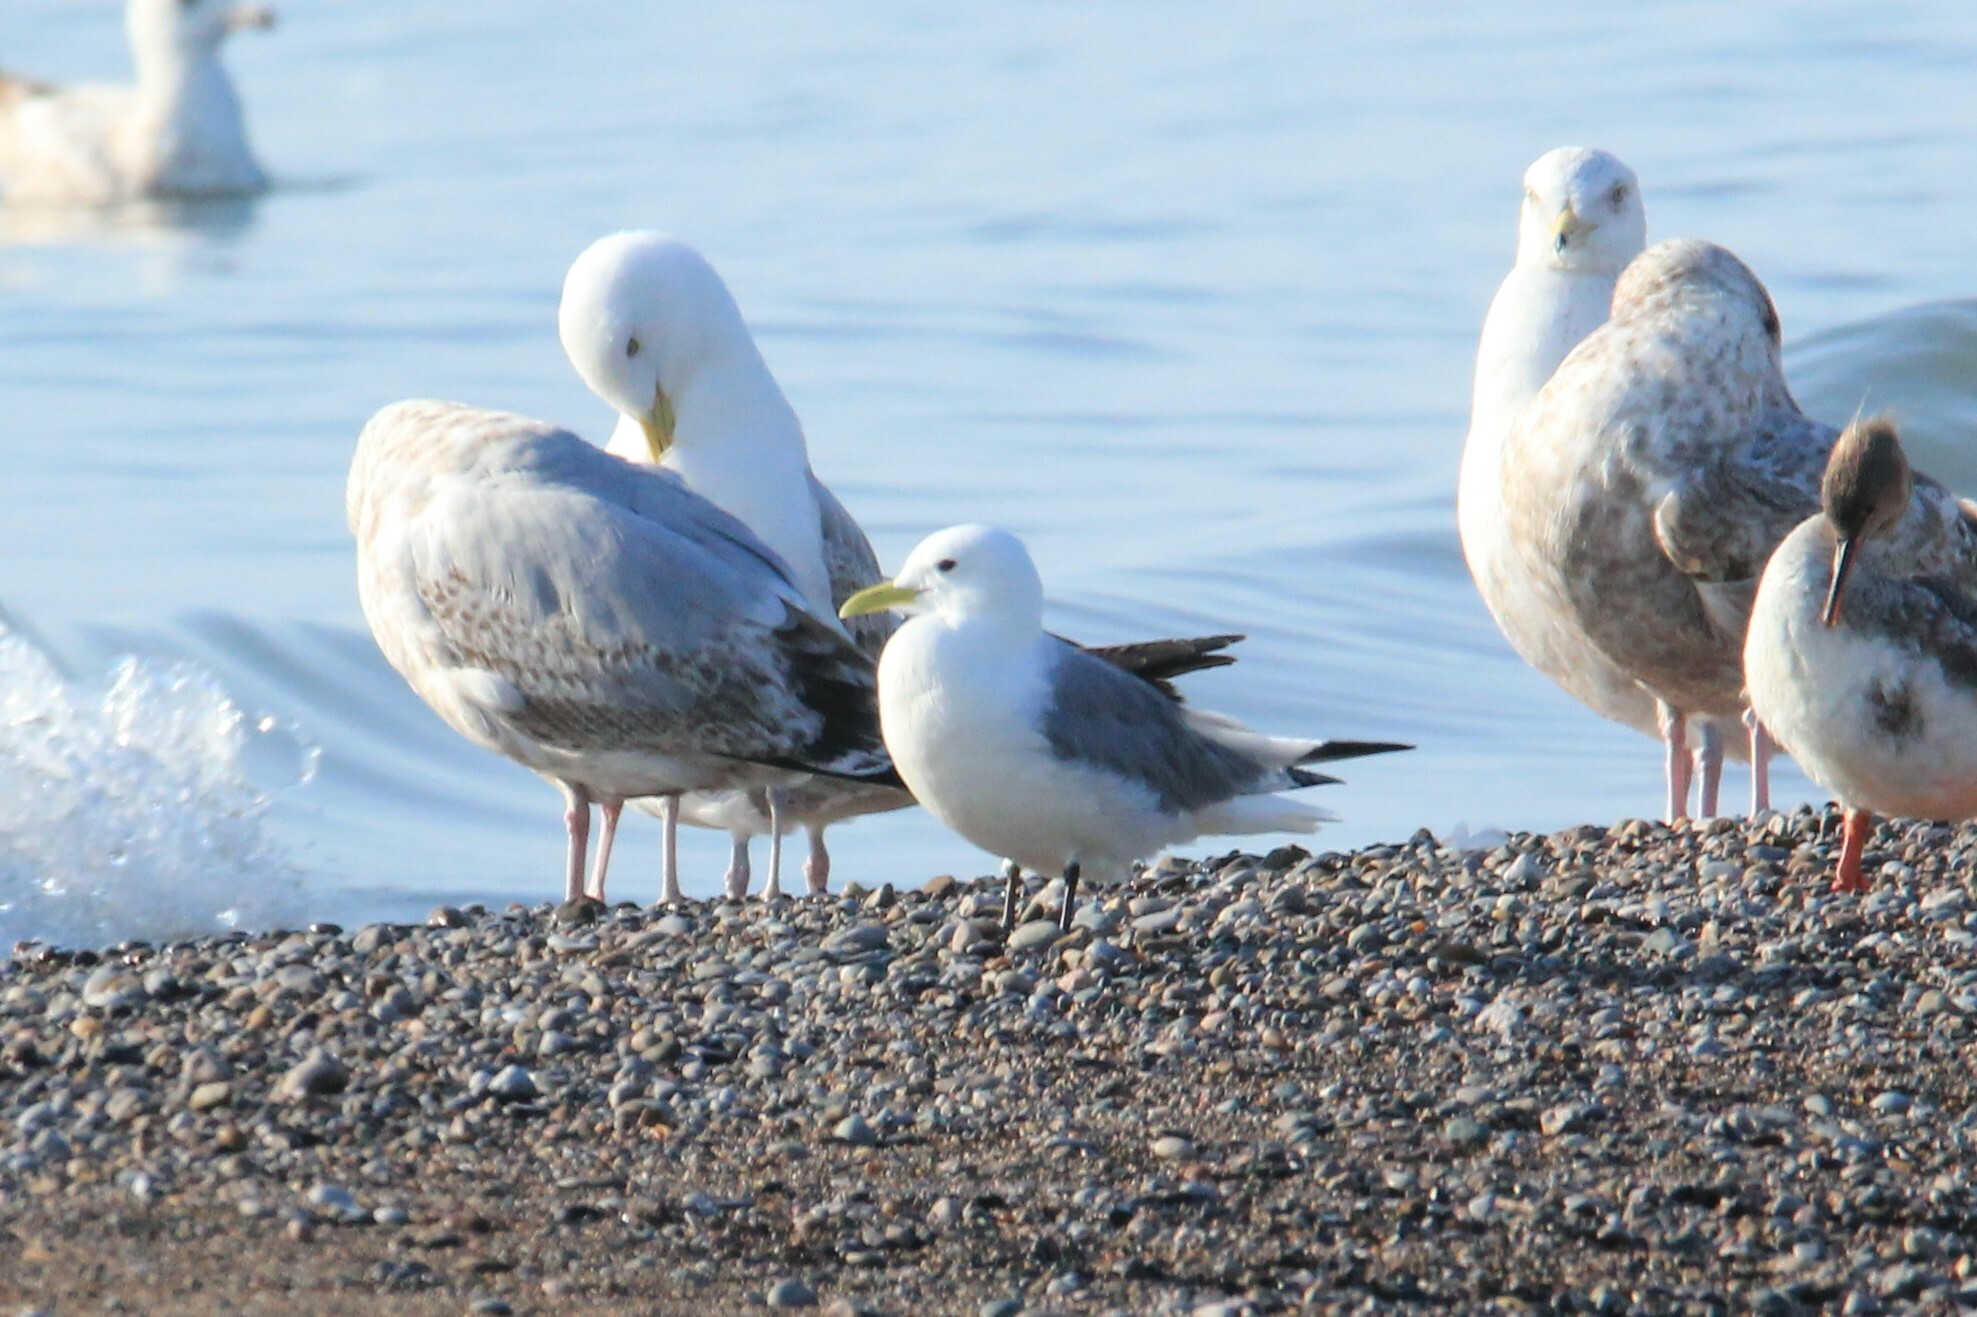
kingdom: Animalia
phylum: Chordata
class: Aves
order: Charadriiformes
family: Laridae
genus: Rissa
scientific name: Rissa tridactyla
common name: Black-legged kittiwake
